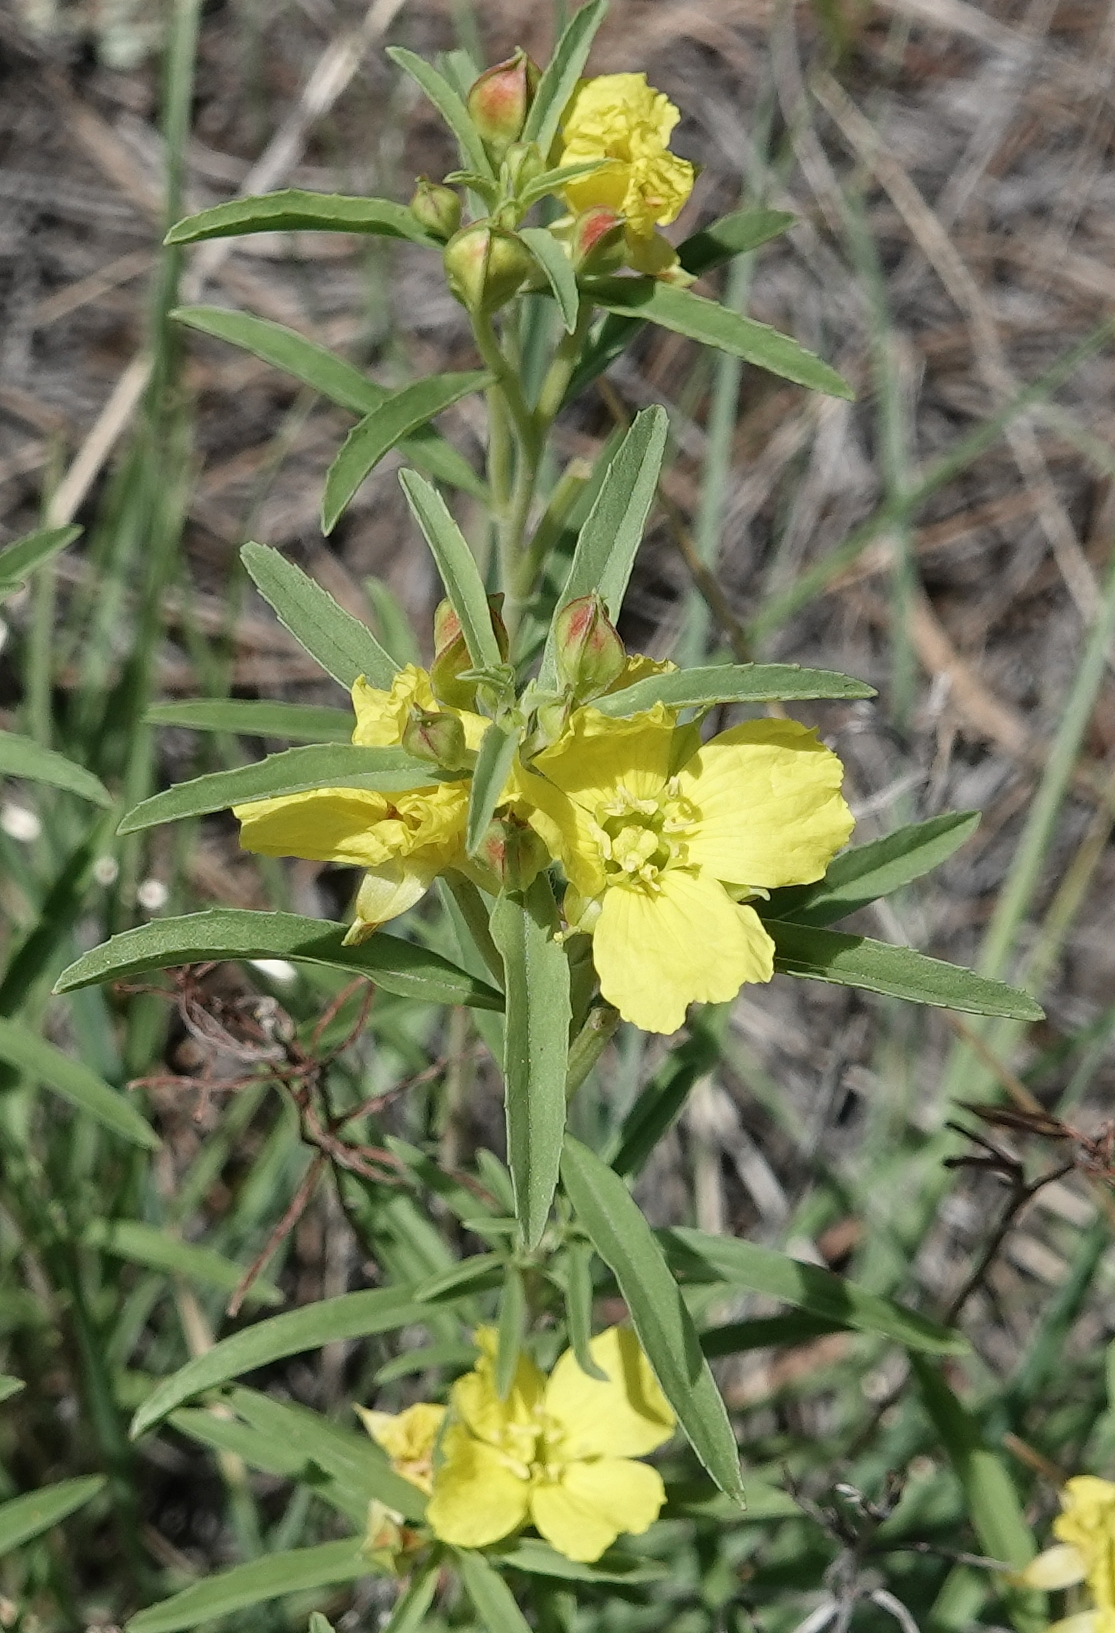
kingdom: Plantae
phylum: Tracheophyta
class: Magnoliopsida
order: Myrtales
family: Onagraceae
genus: Oenothera
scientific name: Oenothera serrulata
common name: Half-shrub calylophus
